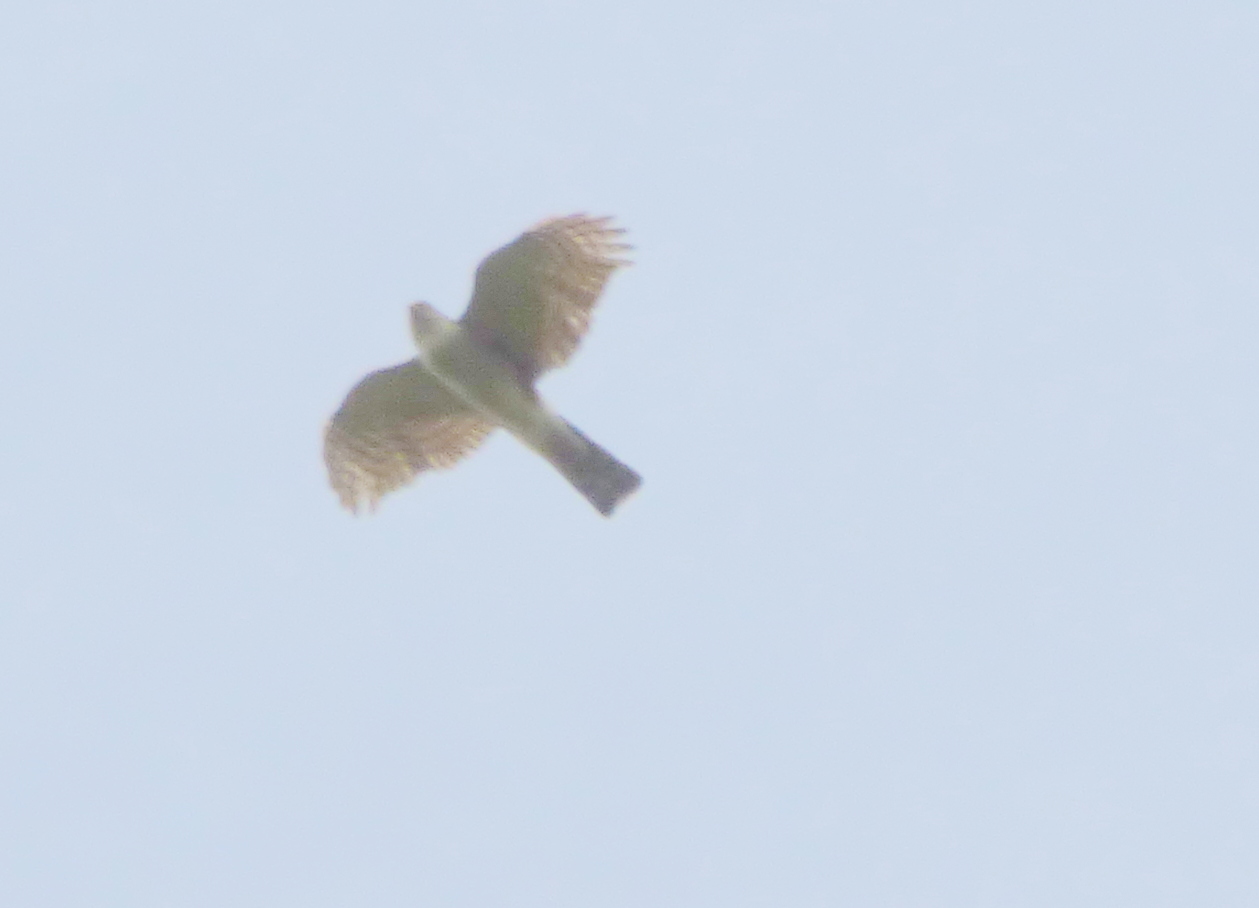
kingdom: Animalia
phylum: Chordata
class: Aves
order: Accipitriformes
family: Accipitridae
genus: Accipiter
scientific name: Accipiter striatus
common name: Sharp-shinned hawk
